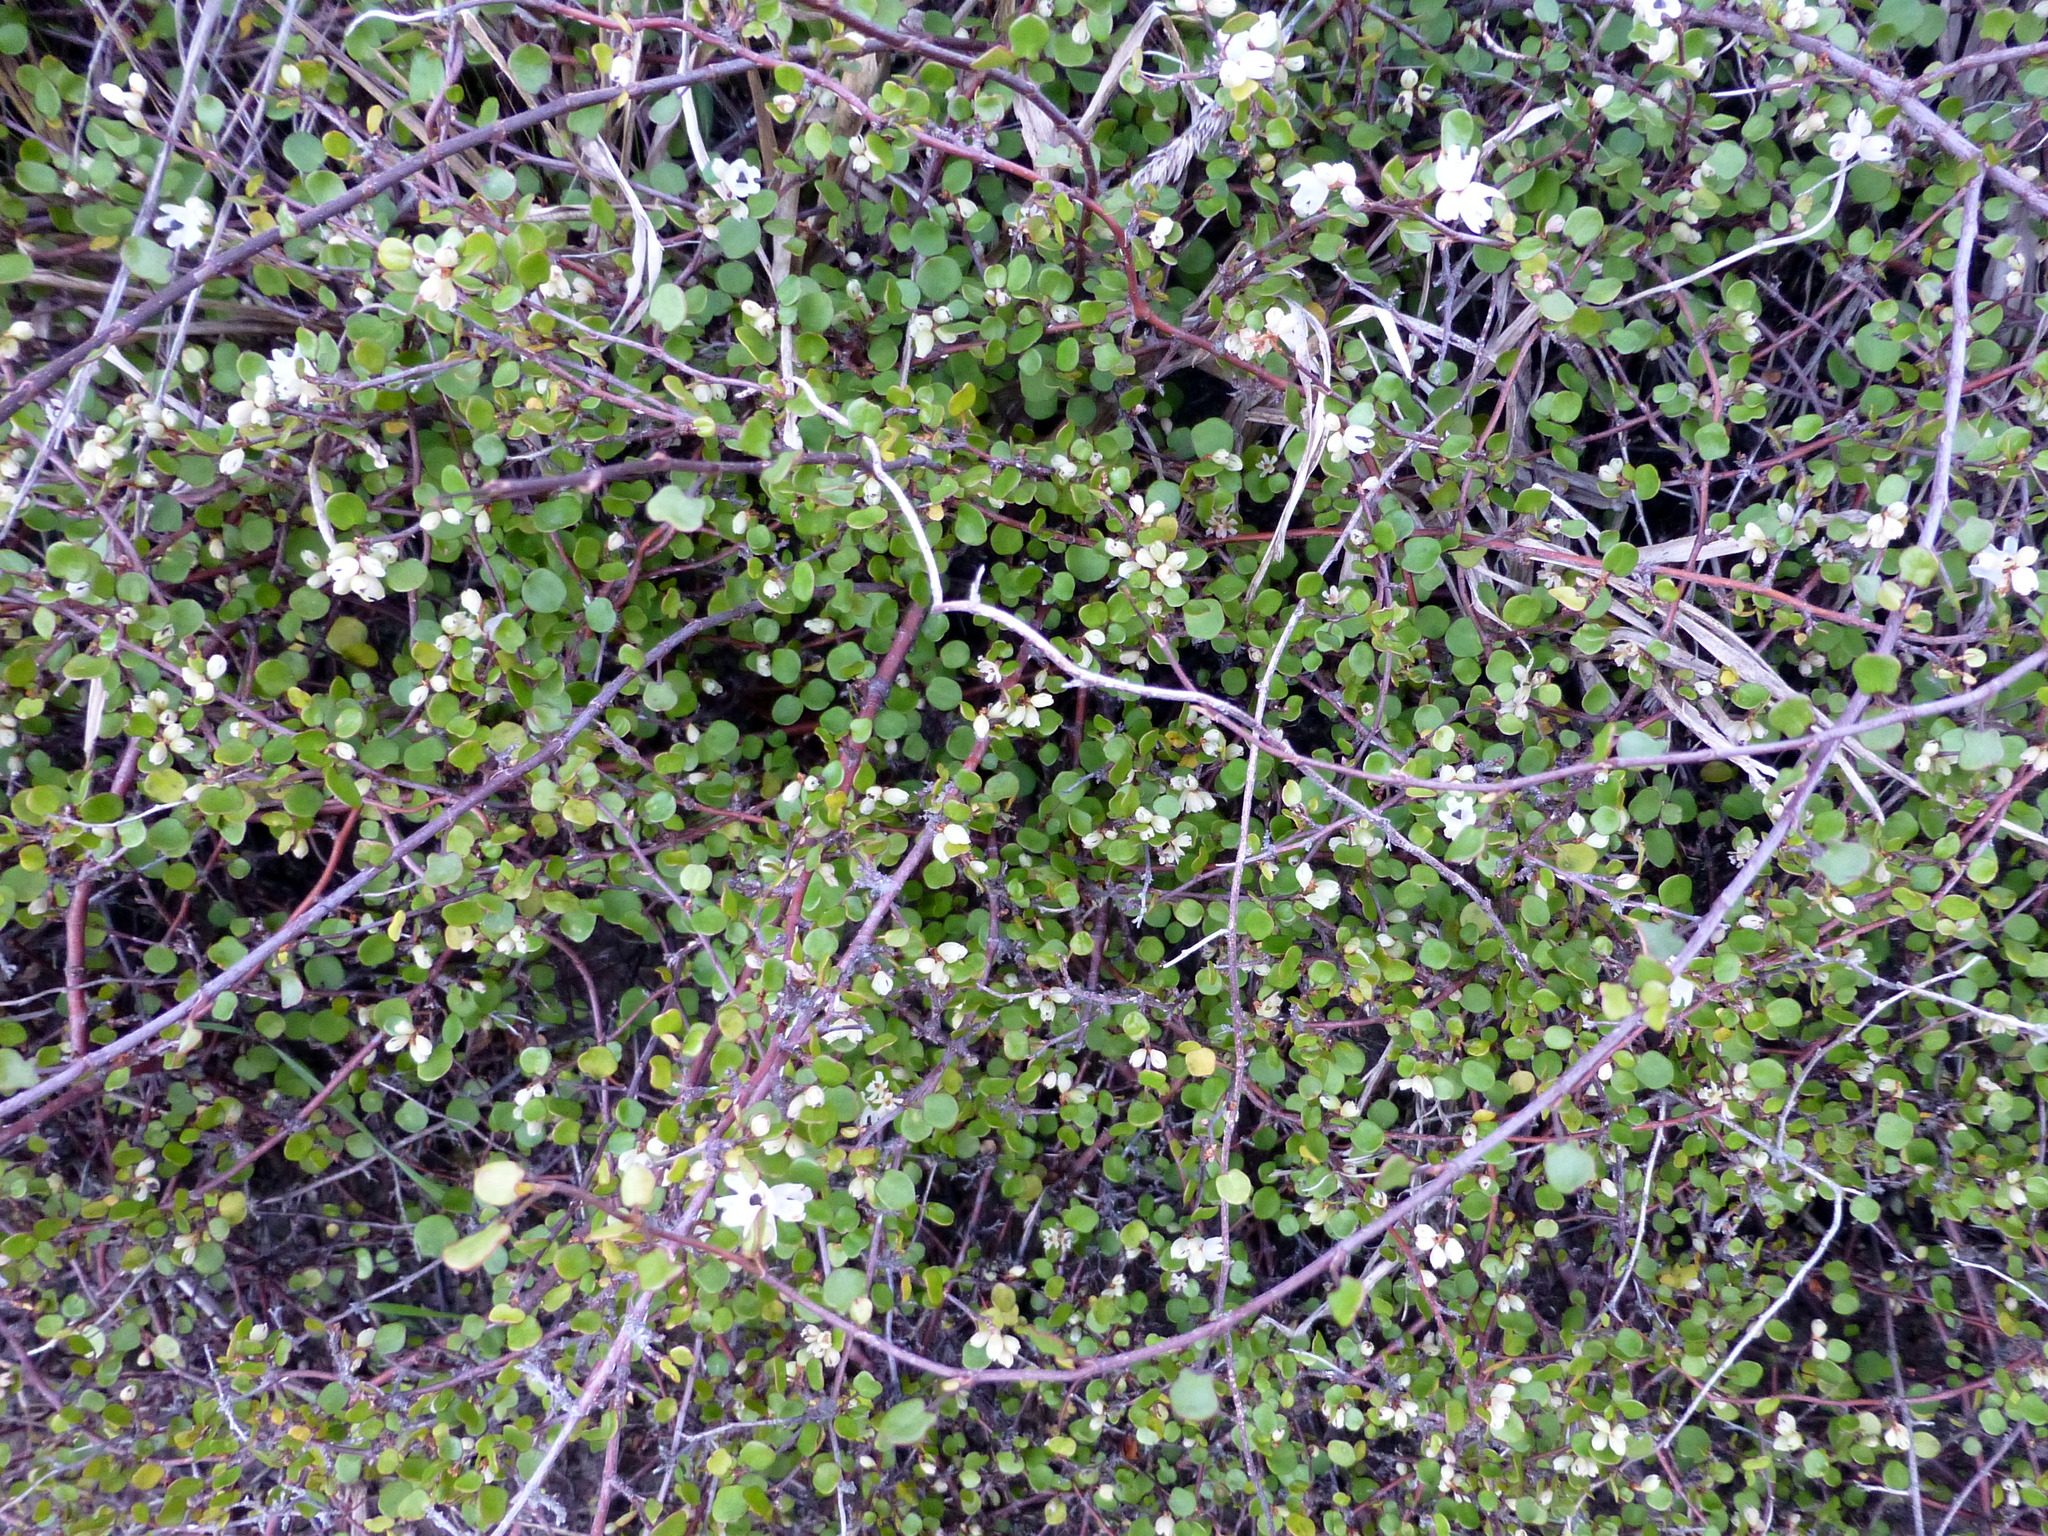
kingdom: Plantae
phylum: Tracheophyta
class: Magnoliopsida
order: Caryophyllales
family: Polygonaceae
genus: Muehlenbeckia
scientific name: Muehlenbeckia complexa
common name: Wireplant
